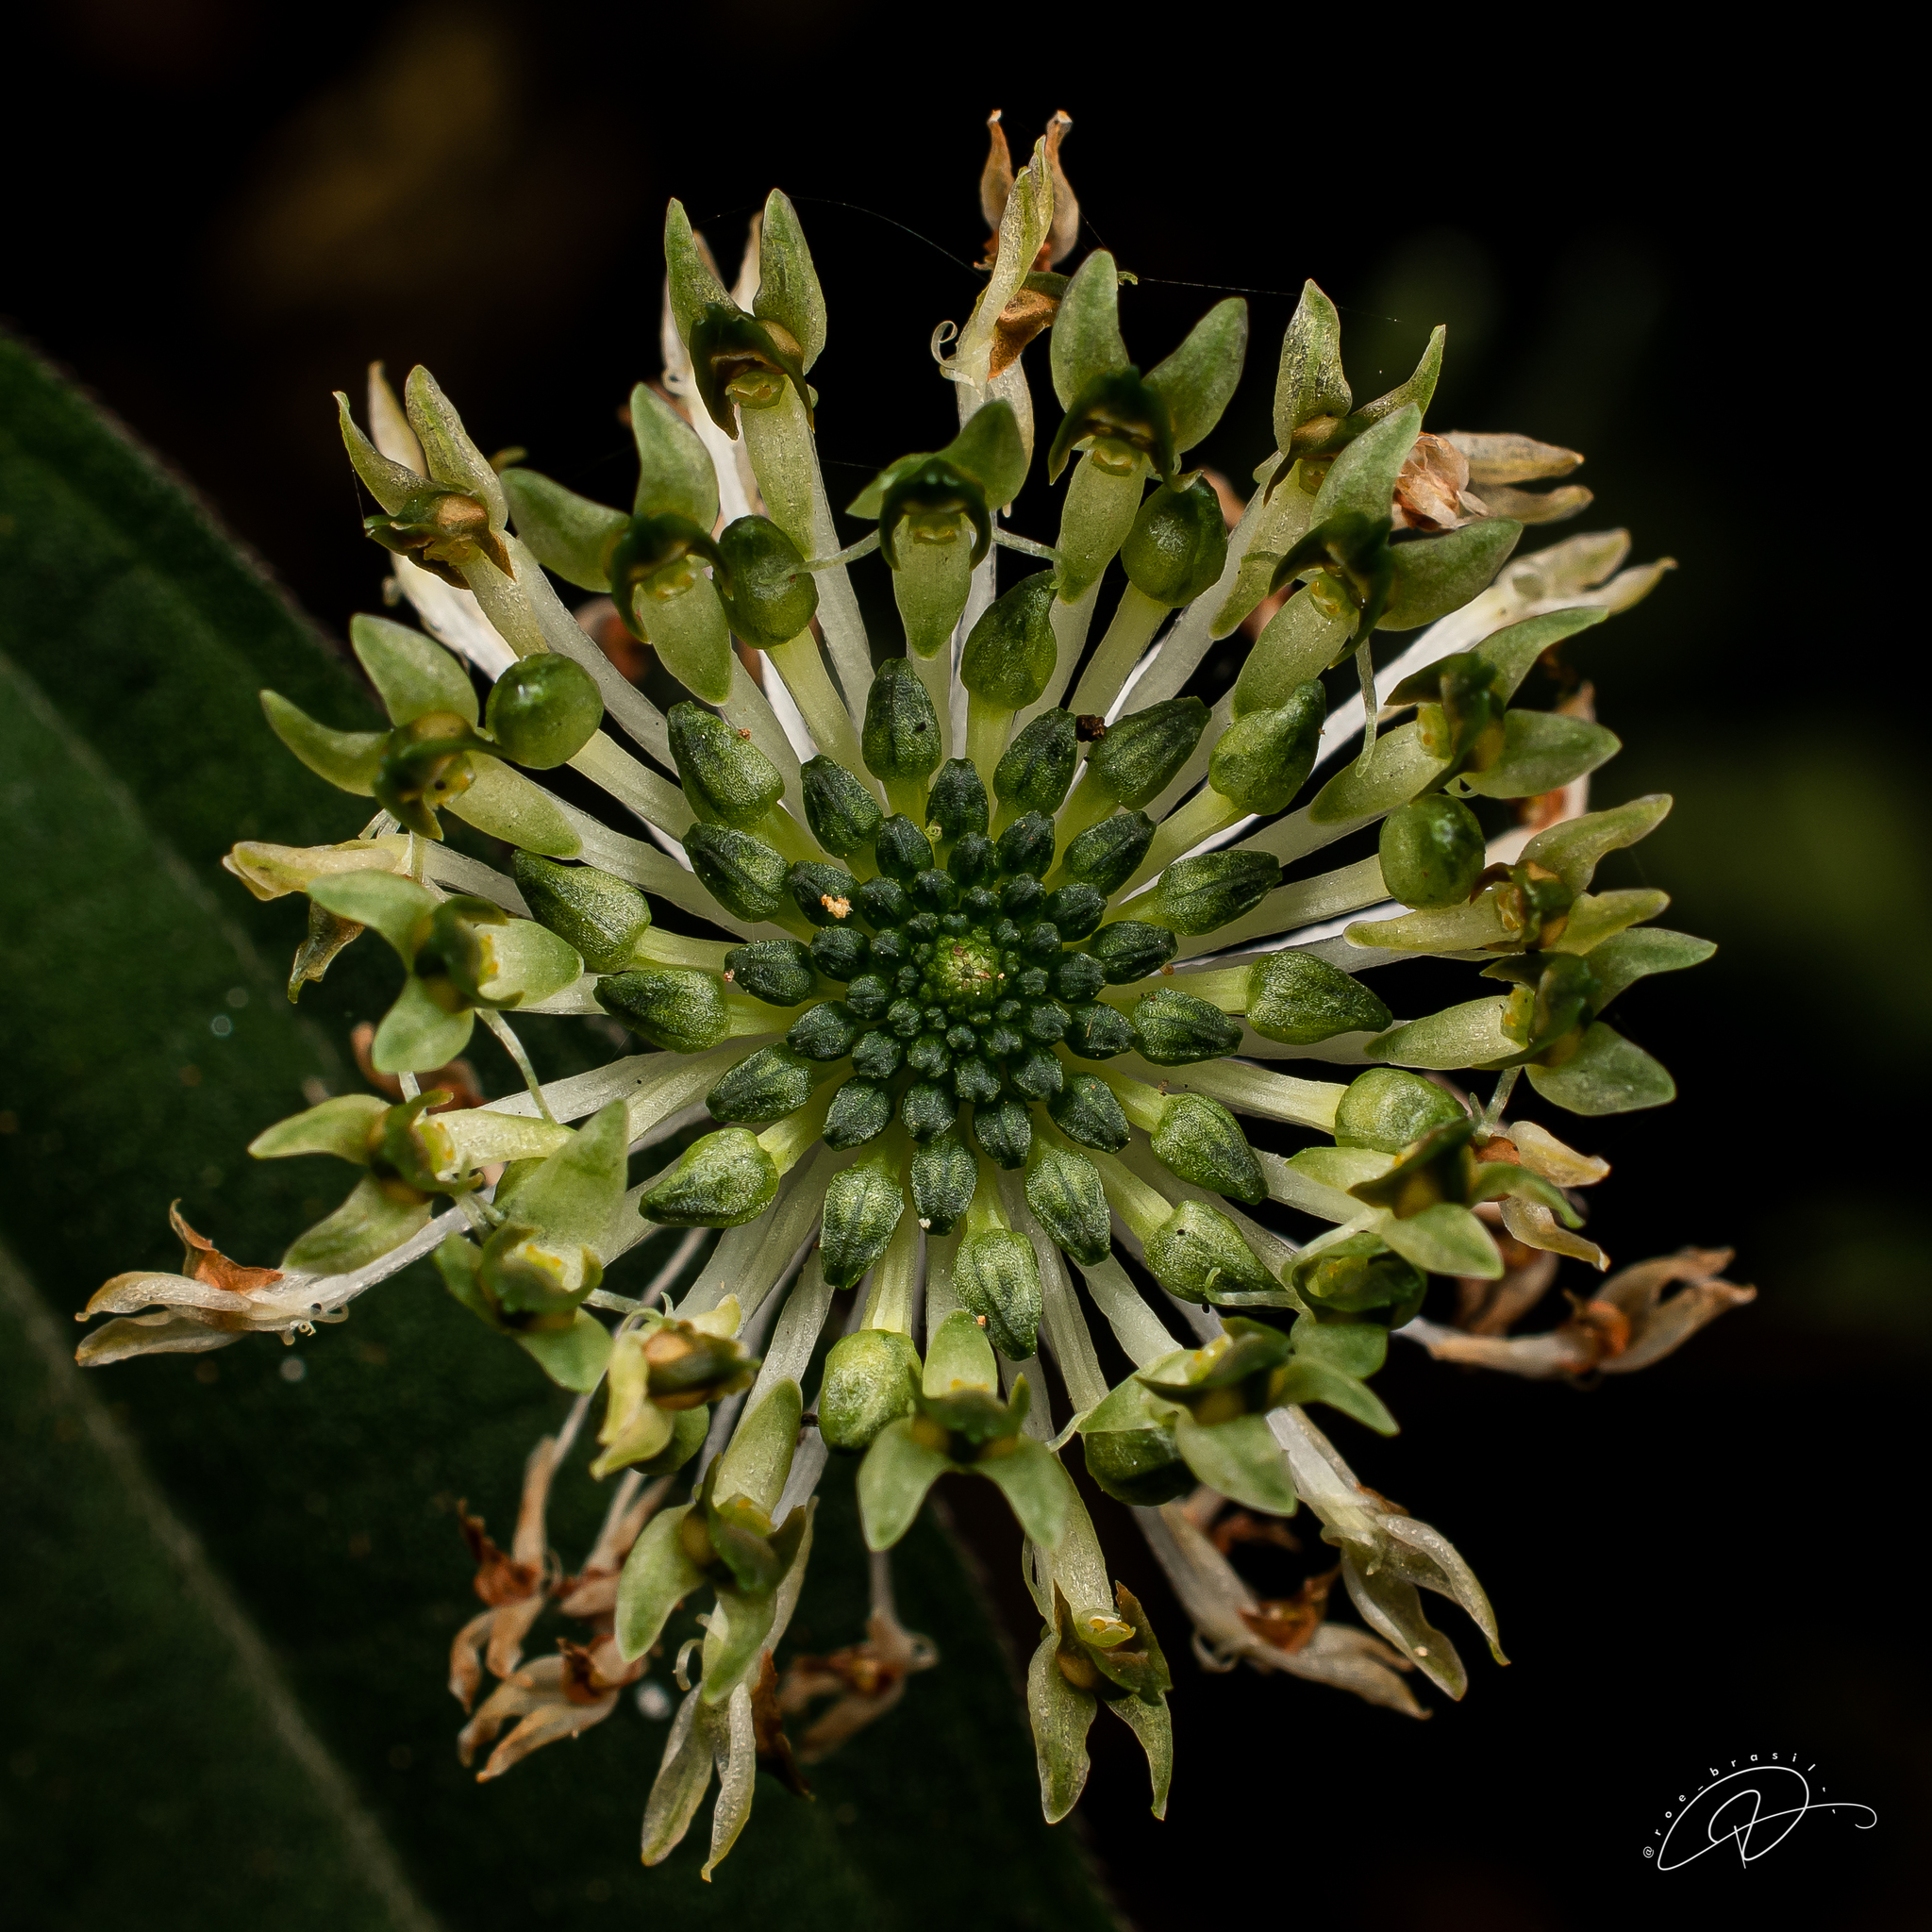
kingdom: Plantae
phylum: Tracheophyta
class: Liliopsida
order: Asparagales
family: Orchidaceae
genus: Malaxis
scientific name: Malaxis excavata
